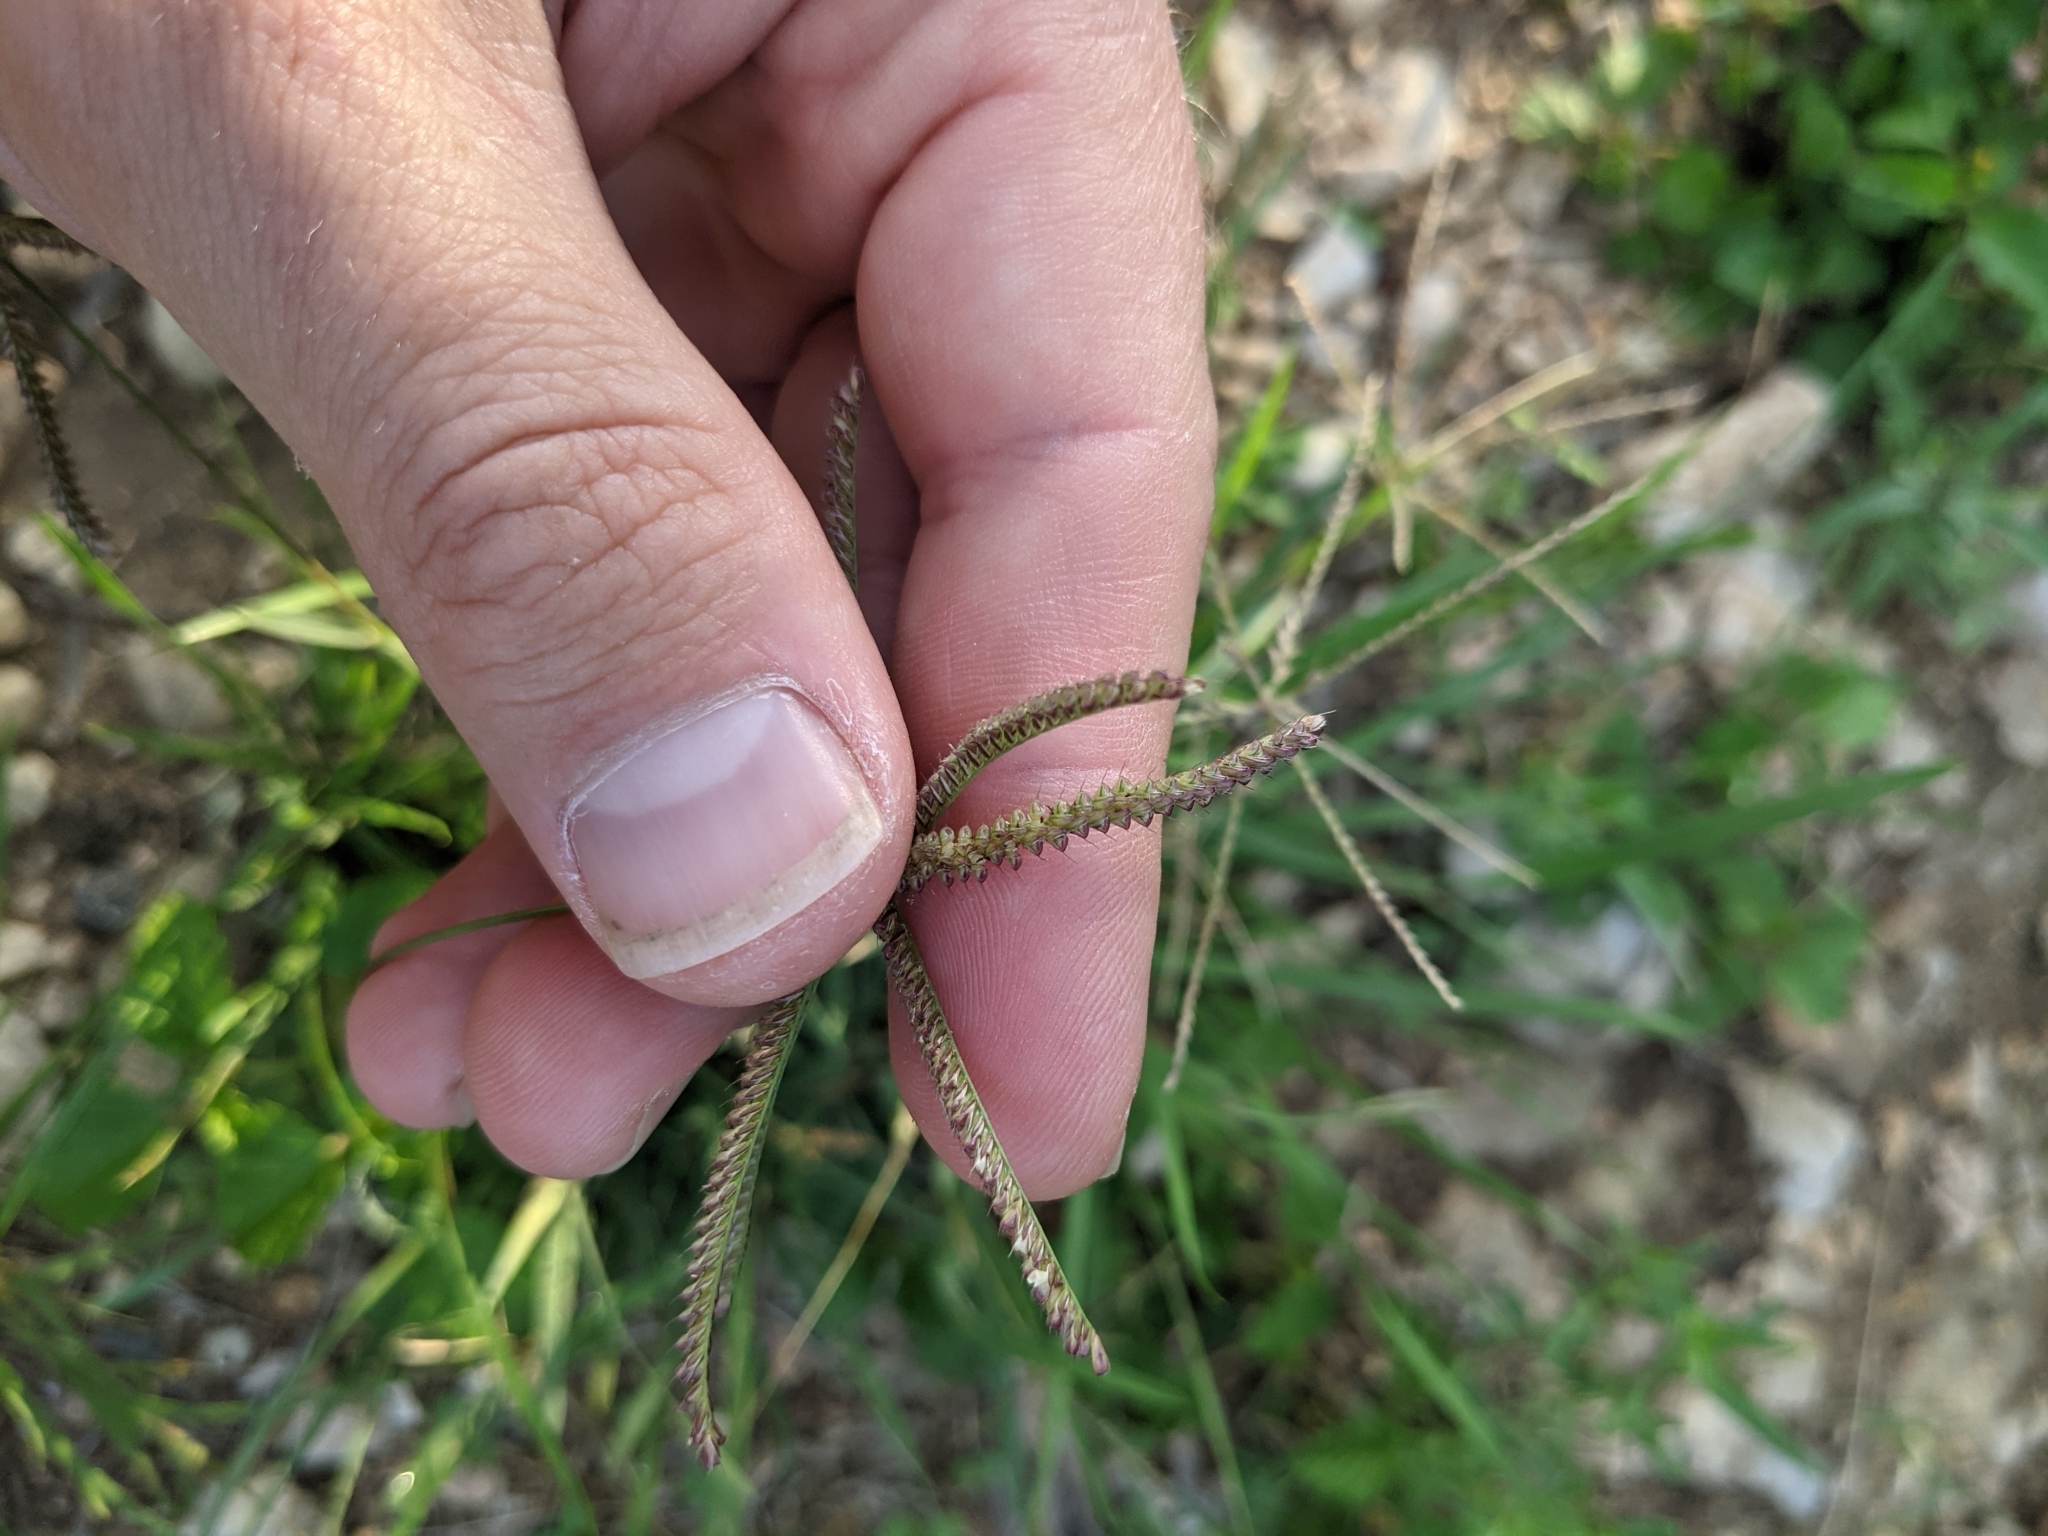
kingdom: Plantae
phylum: Tracheophyta
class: Liliopsida
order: Poales
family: Poaceae
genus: Chloris
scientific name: Chloris cucullata
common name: Hooded windmill grass
